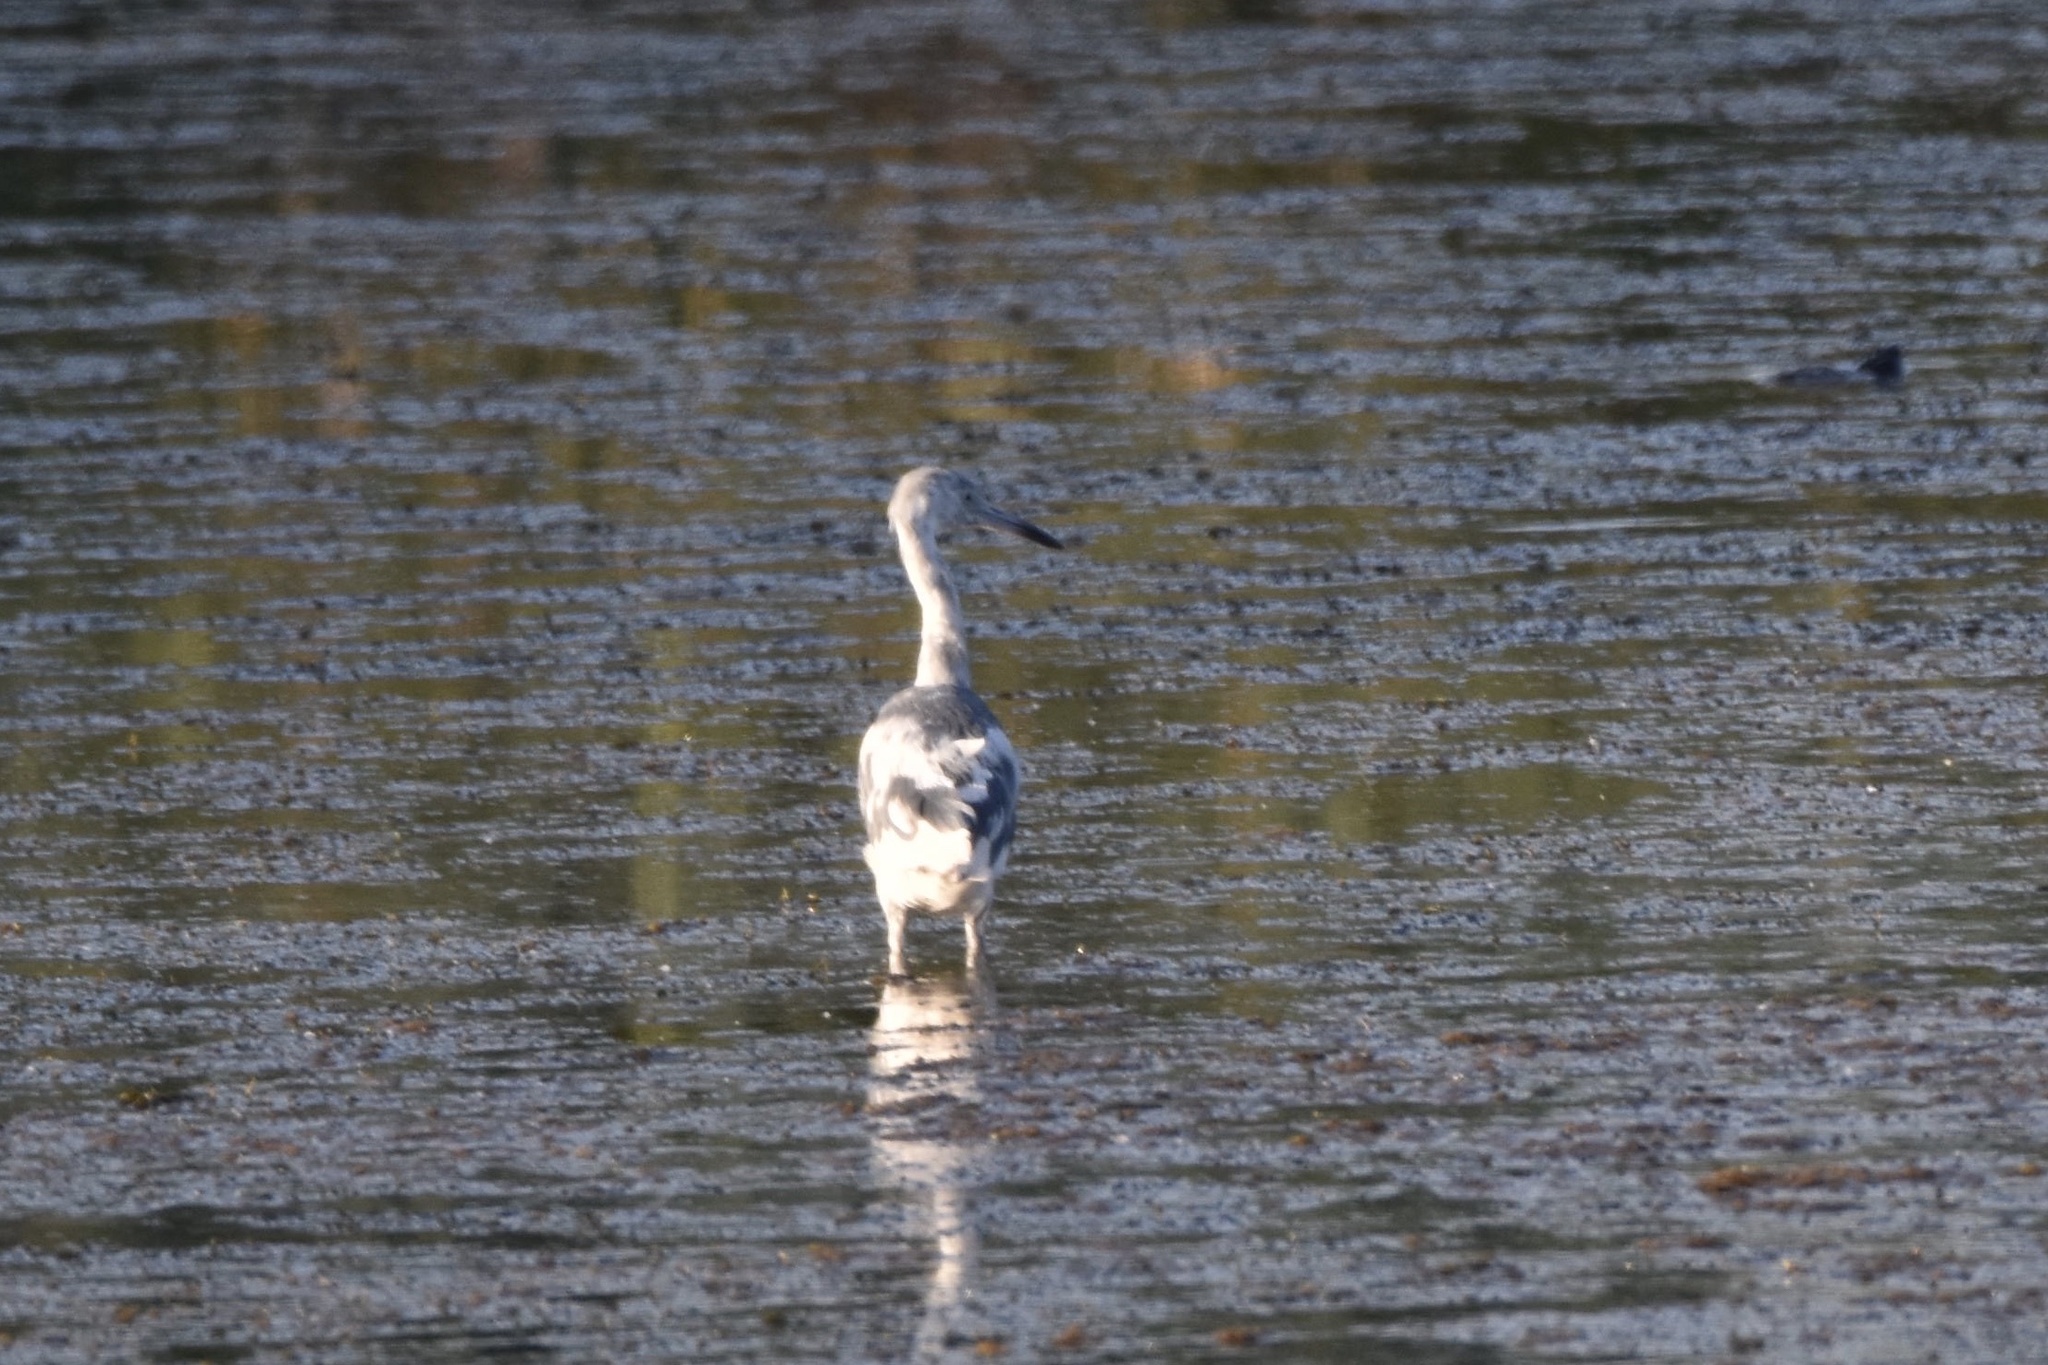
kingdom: Animalia
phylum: Chordata
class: Aves
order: Pelecaniformes
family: Ardeidae
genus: Egretta
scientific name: Egretta caerulea
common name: Little blue heron
